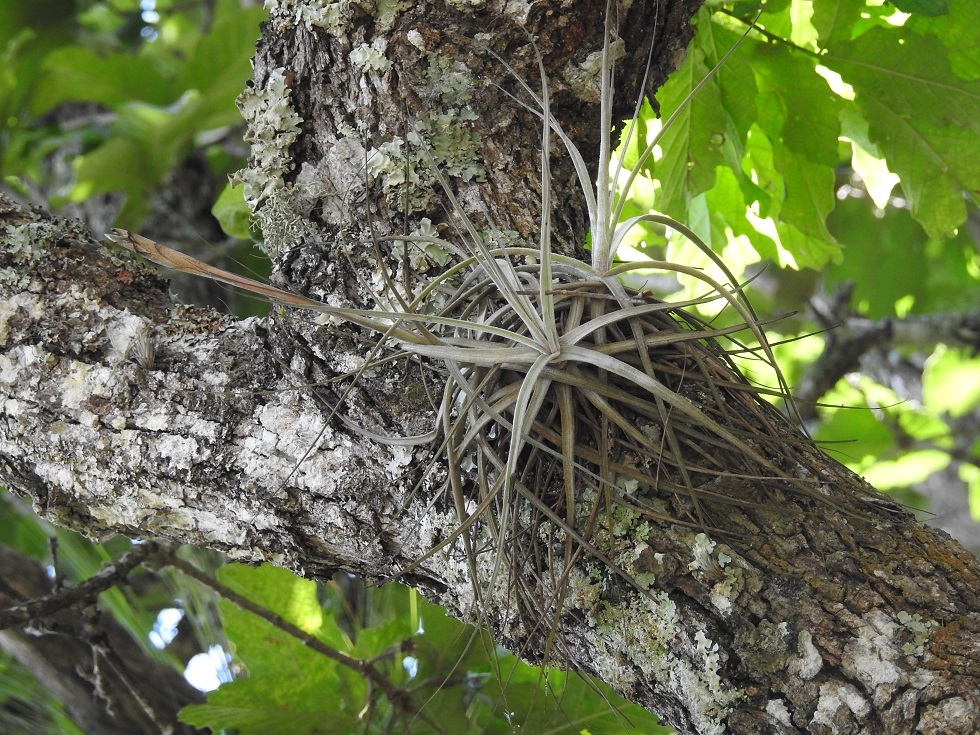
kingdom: Plantae
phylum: Tracheophyta
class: Liliopsida
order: Poales
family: Bromeliaceae
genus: Tillandsia
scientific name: Tillandsia schiedeana
